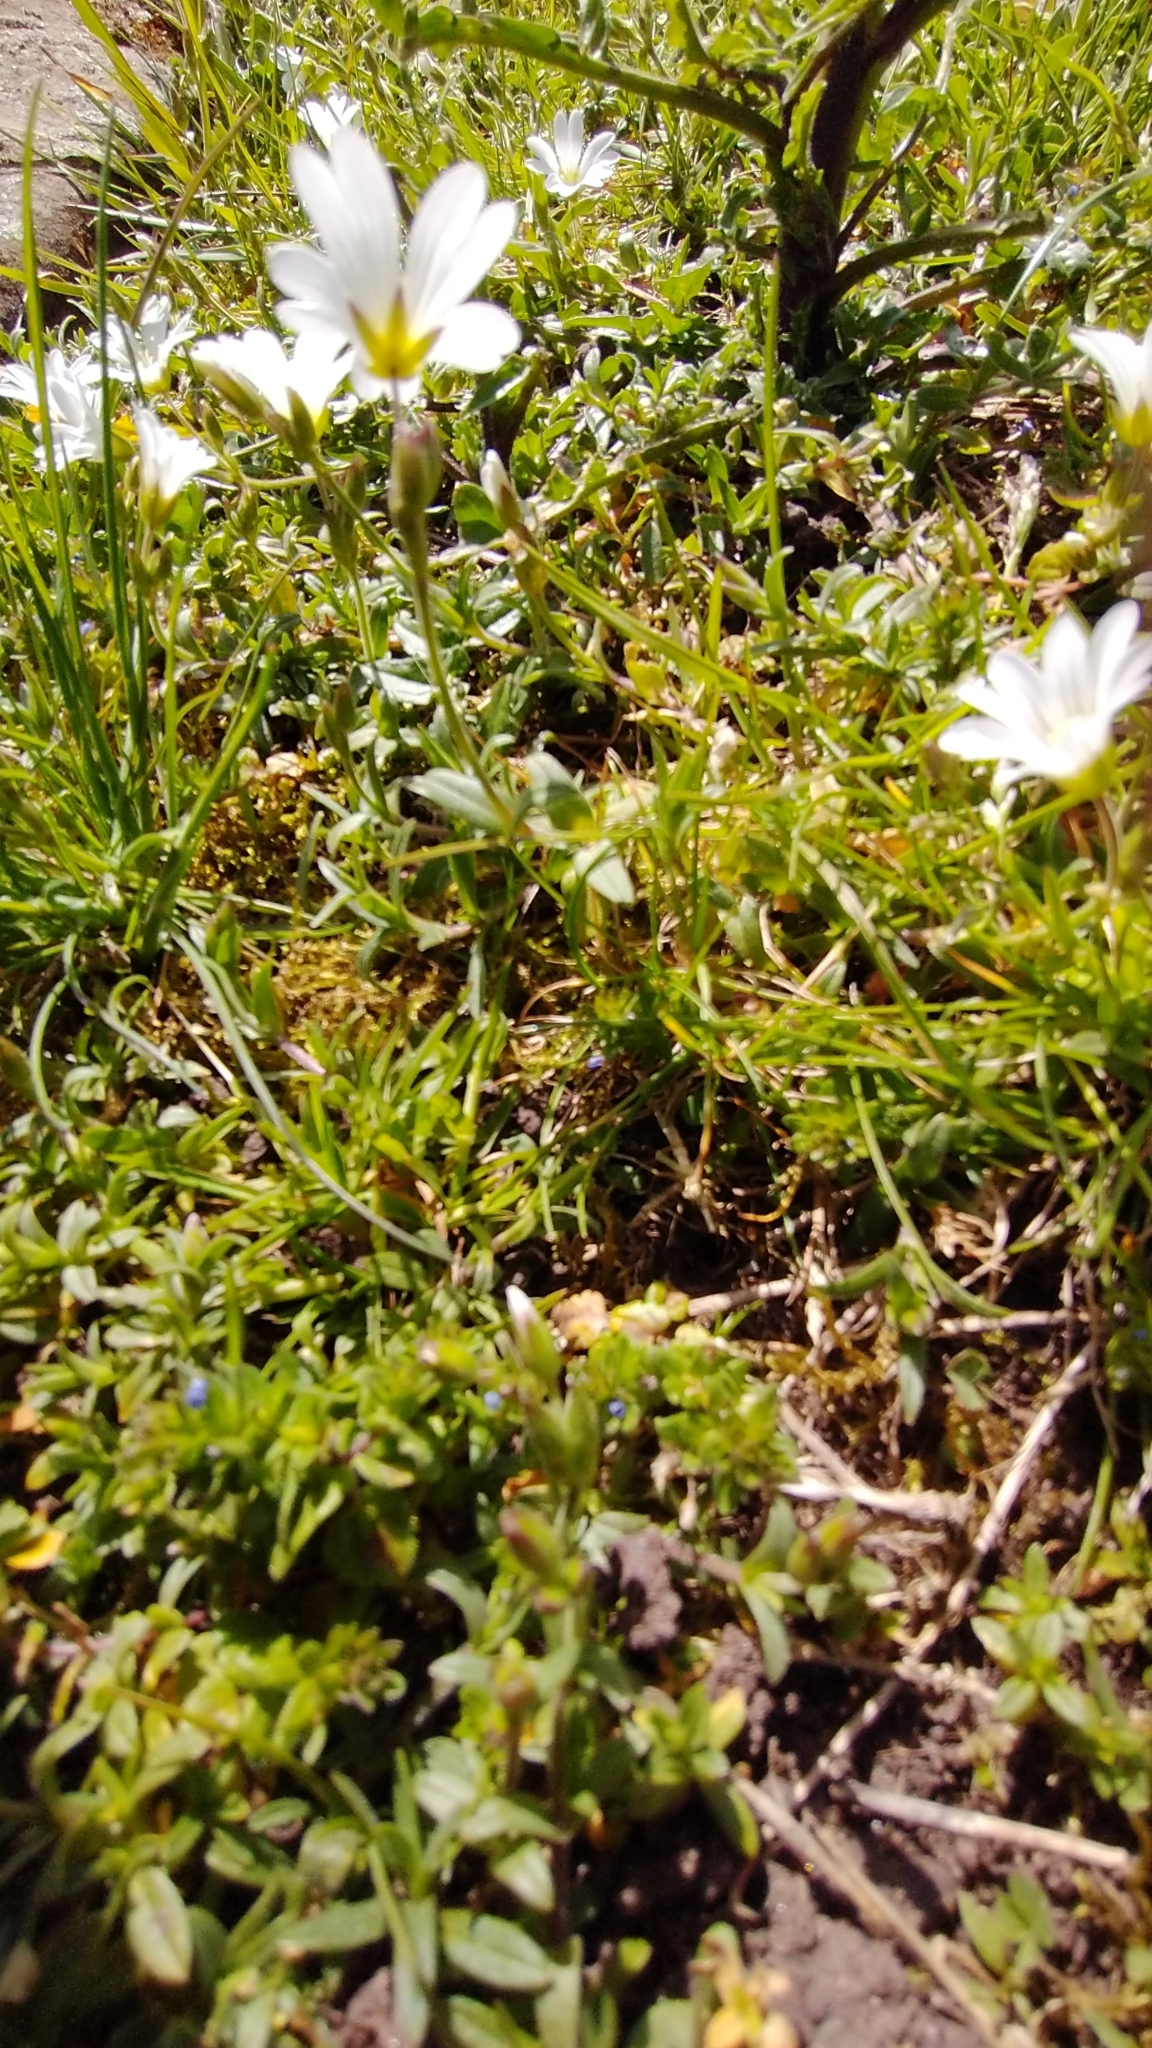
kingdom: Plantae
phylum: Tracheophyta
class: Magnoliopsida
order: Caryophyllales
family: Caryophyllaceae
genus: Cerastium
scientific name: Cerastium arvense
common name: Field mouse-ear
